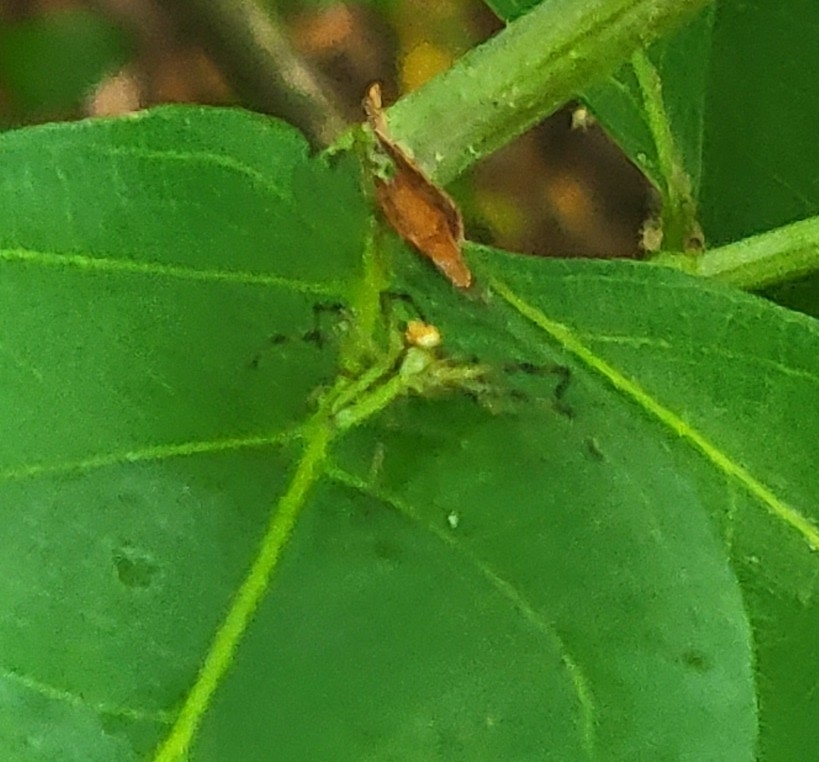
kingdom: Animalia
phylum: Arthropoda
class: Arachnida
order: Araneae
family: Salticidae
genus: Lyssomanes
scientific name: Lyssomanes viridis
